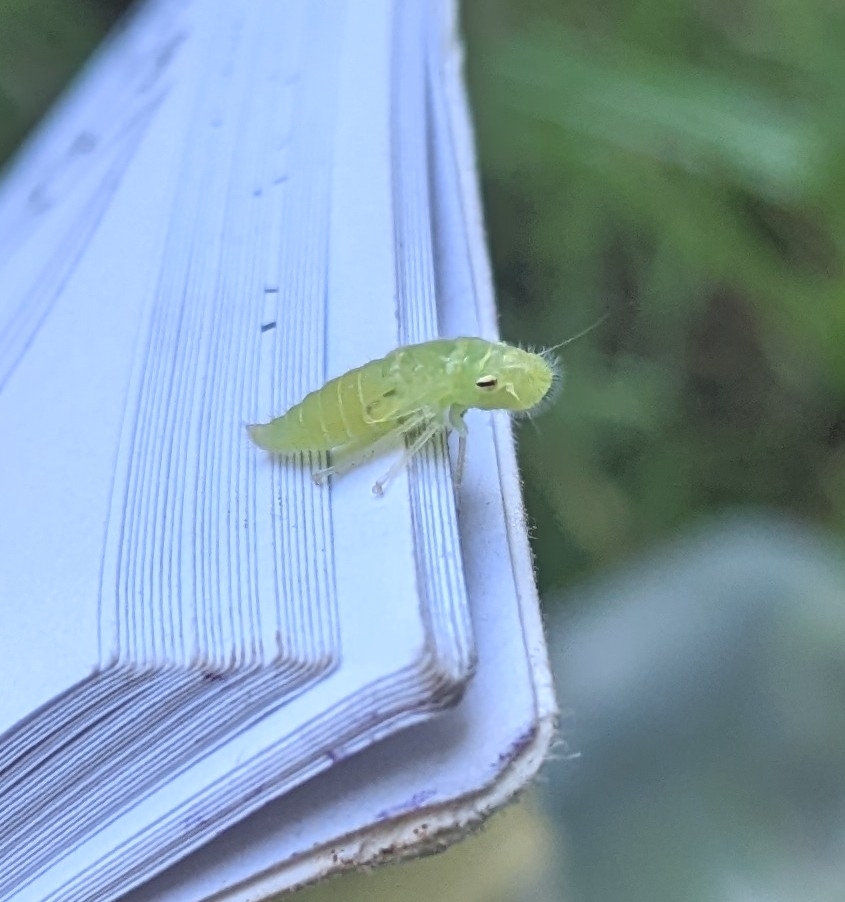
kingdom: Animalia
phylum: Arthropoda
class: Insecta
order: Hemiptera
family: Cicadellidae
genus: Paraulacizes
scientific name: Paraulacizes irrorata
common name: Speckled sharpshooter
